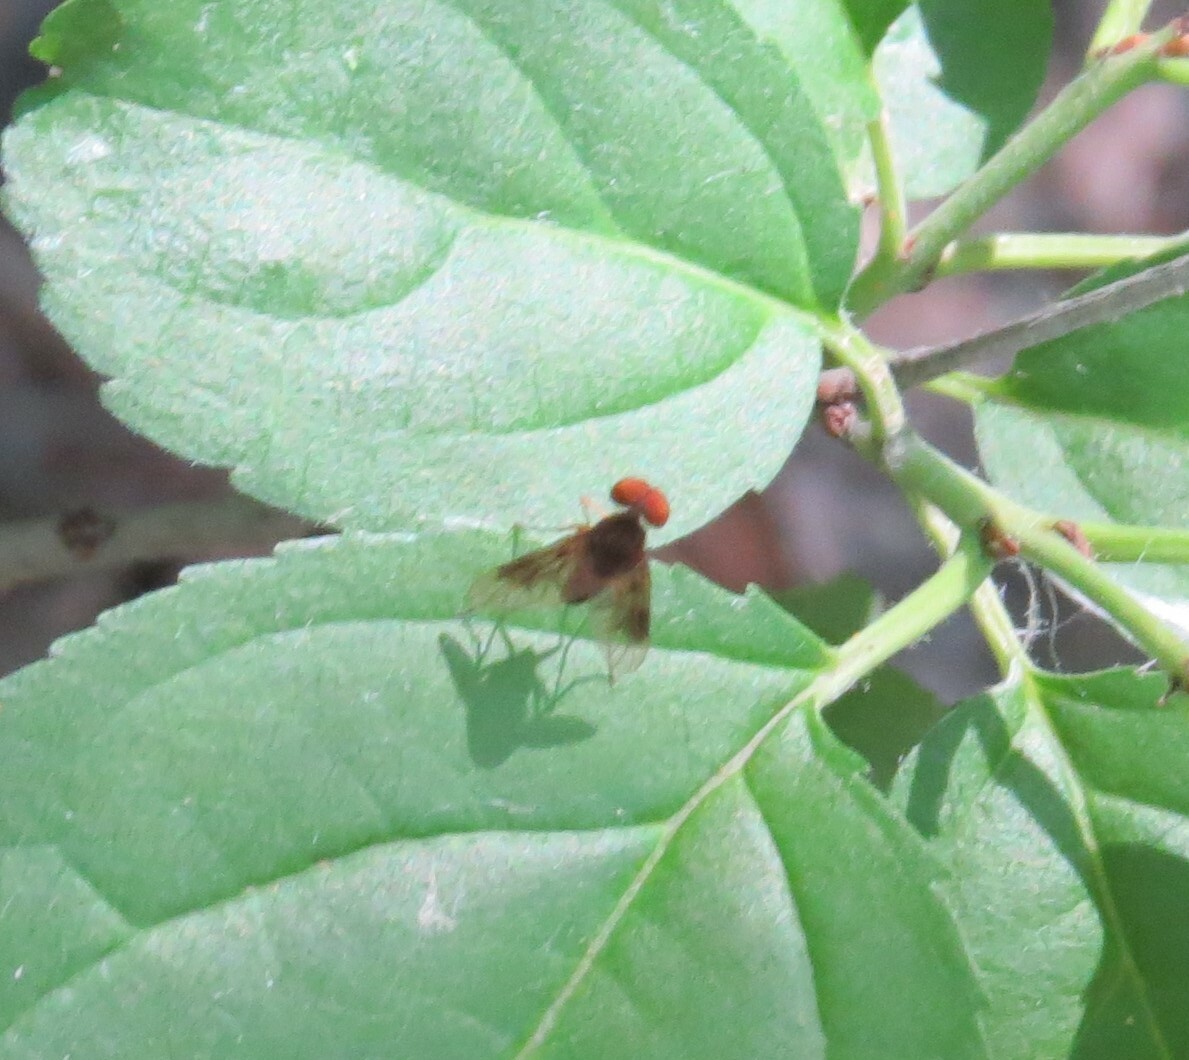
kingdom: Animalia
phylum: Arthropoda
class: Insecta
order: Diptera
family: Rhagionidae
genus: Chrysopilus
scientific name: Chrysopilus quadratus
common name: Quadrate snipe fly
